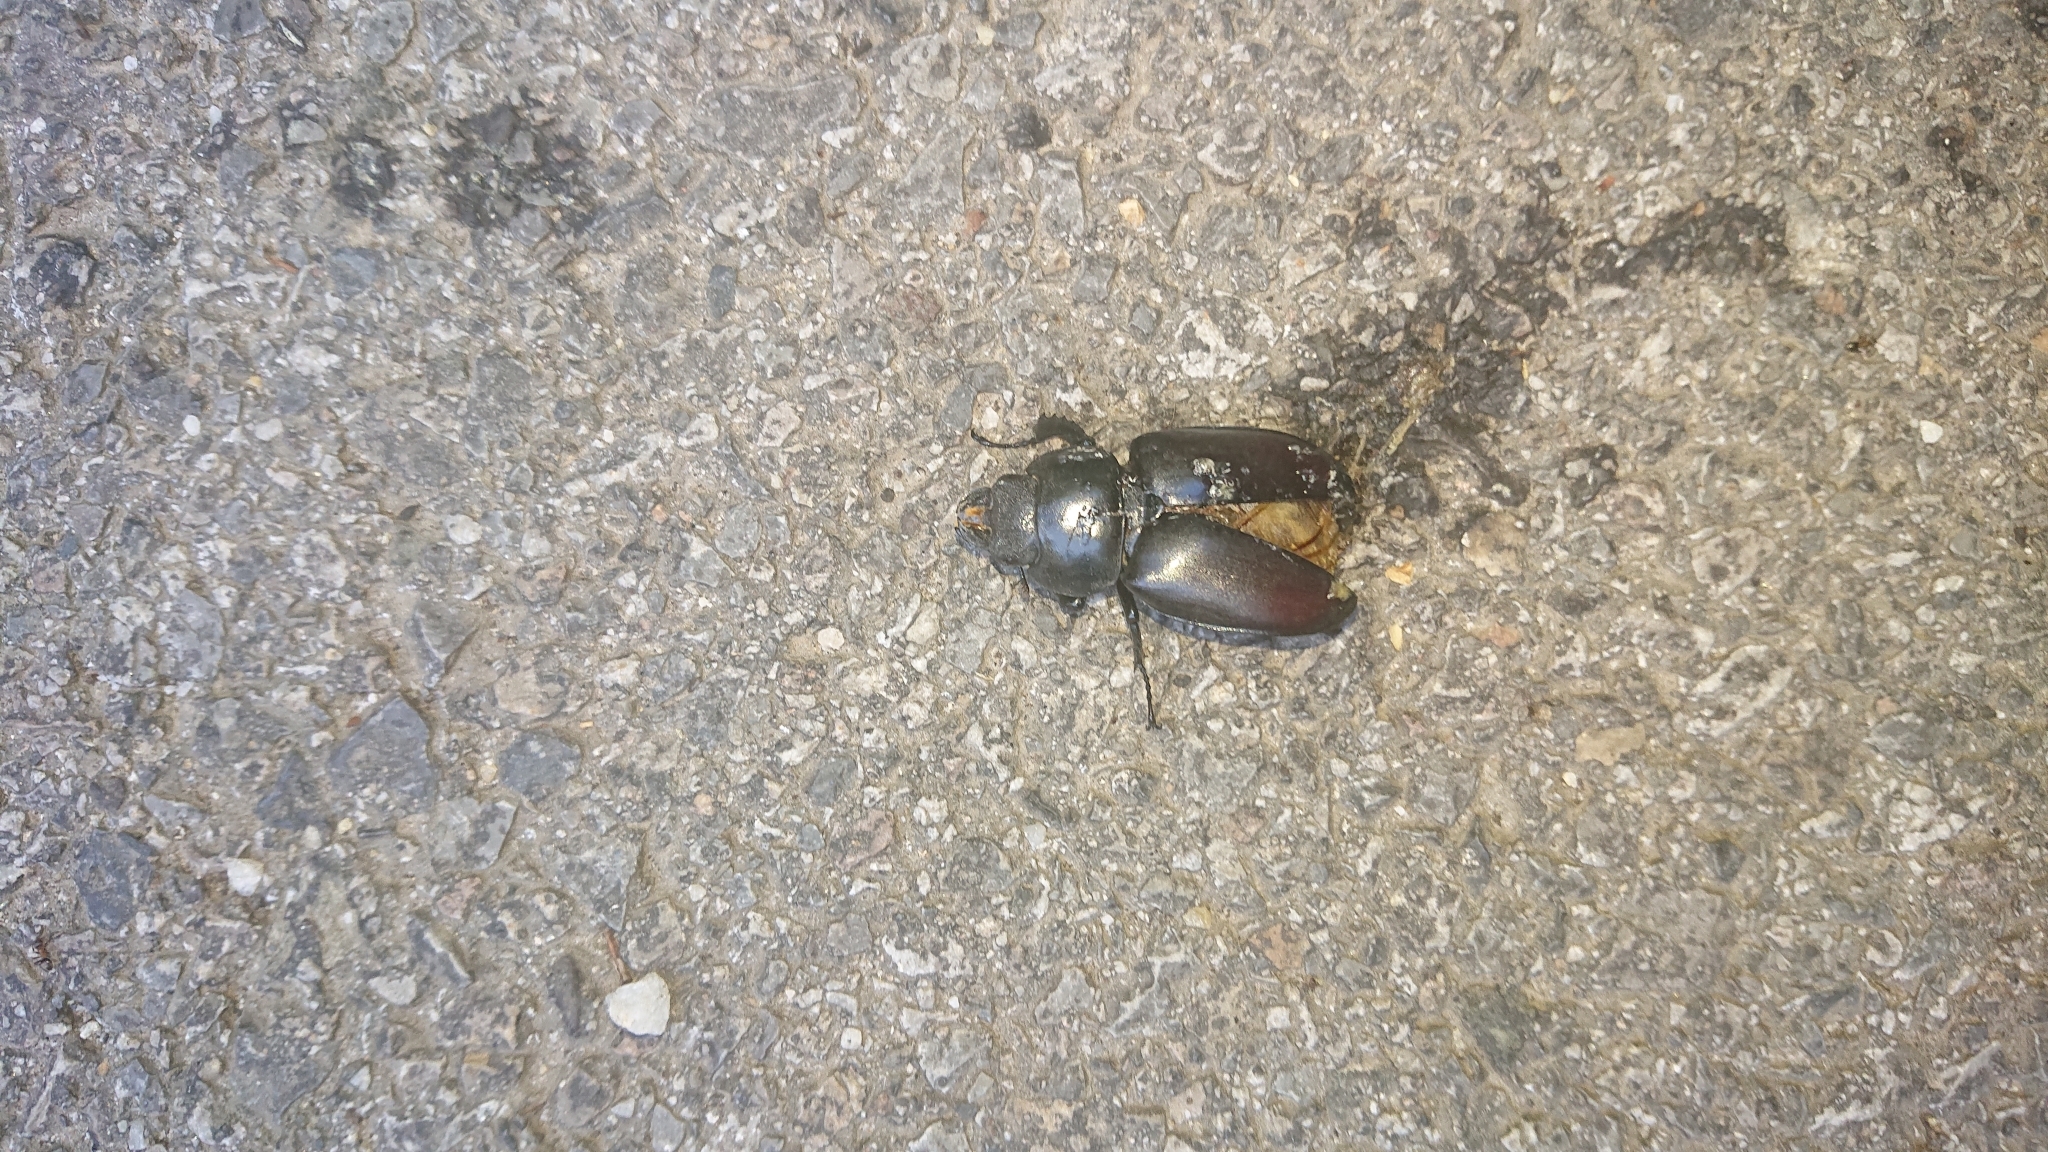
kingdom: Animalia
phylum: Arthropoda
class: Insecta
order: Coleoptera
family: Lucanidae
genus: Lucanus
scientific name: Lucanus cervus
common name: Stag beetle
